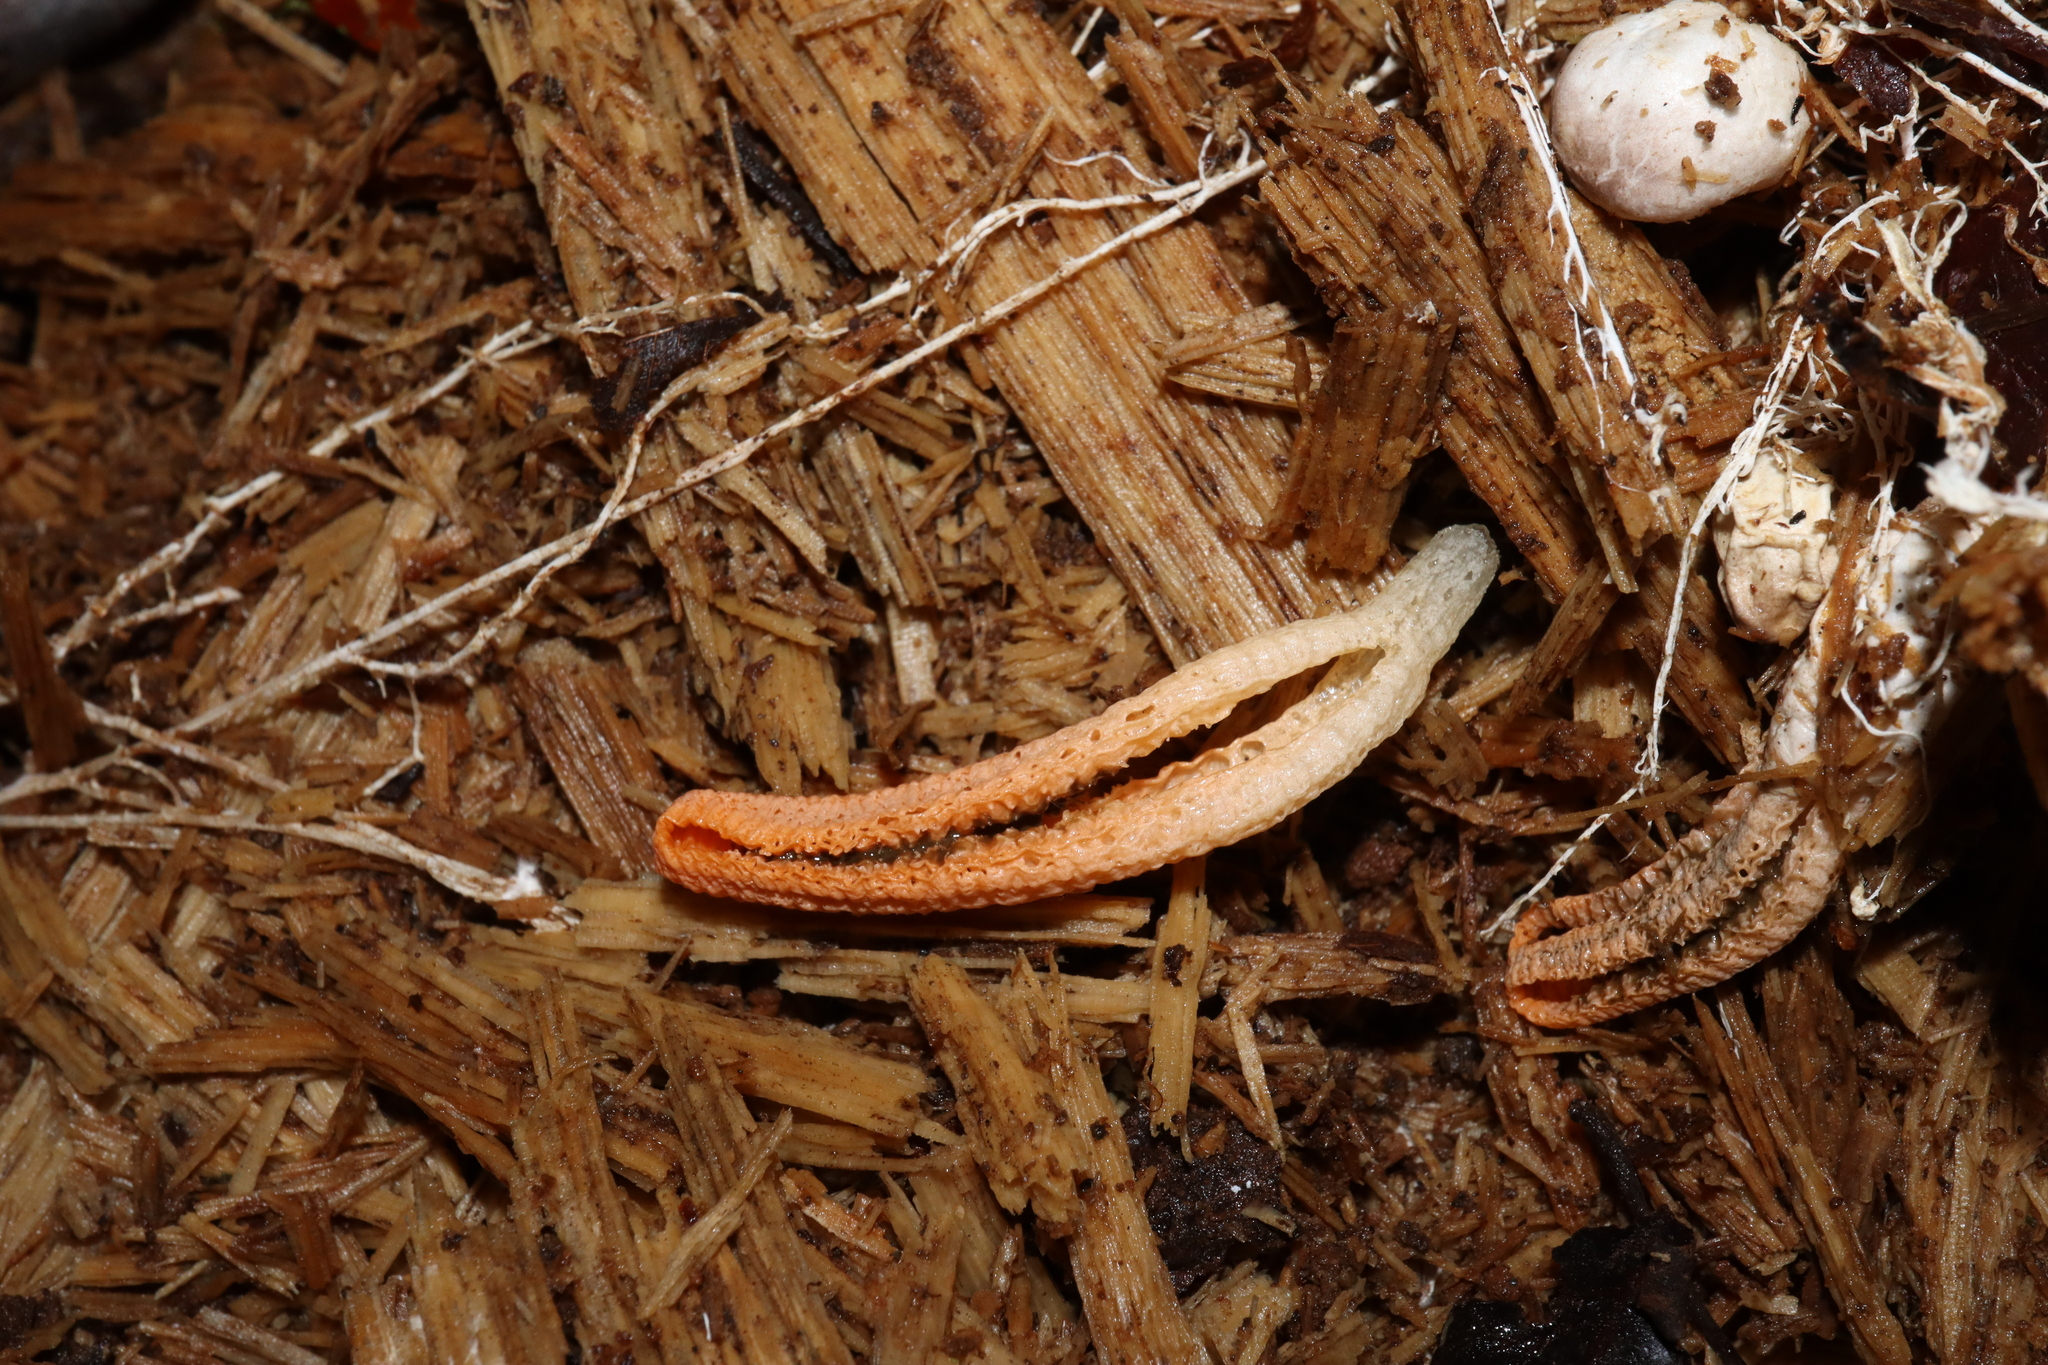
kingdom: Fungi
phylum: Basidiomycota
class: Agaricomycetes
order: Phallales
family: Phallaceae
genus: Pseudocolus
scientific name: Pseudocolus fusiformis
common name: Stinky squid
